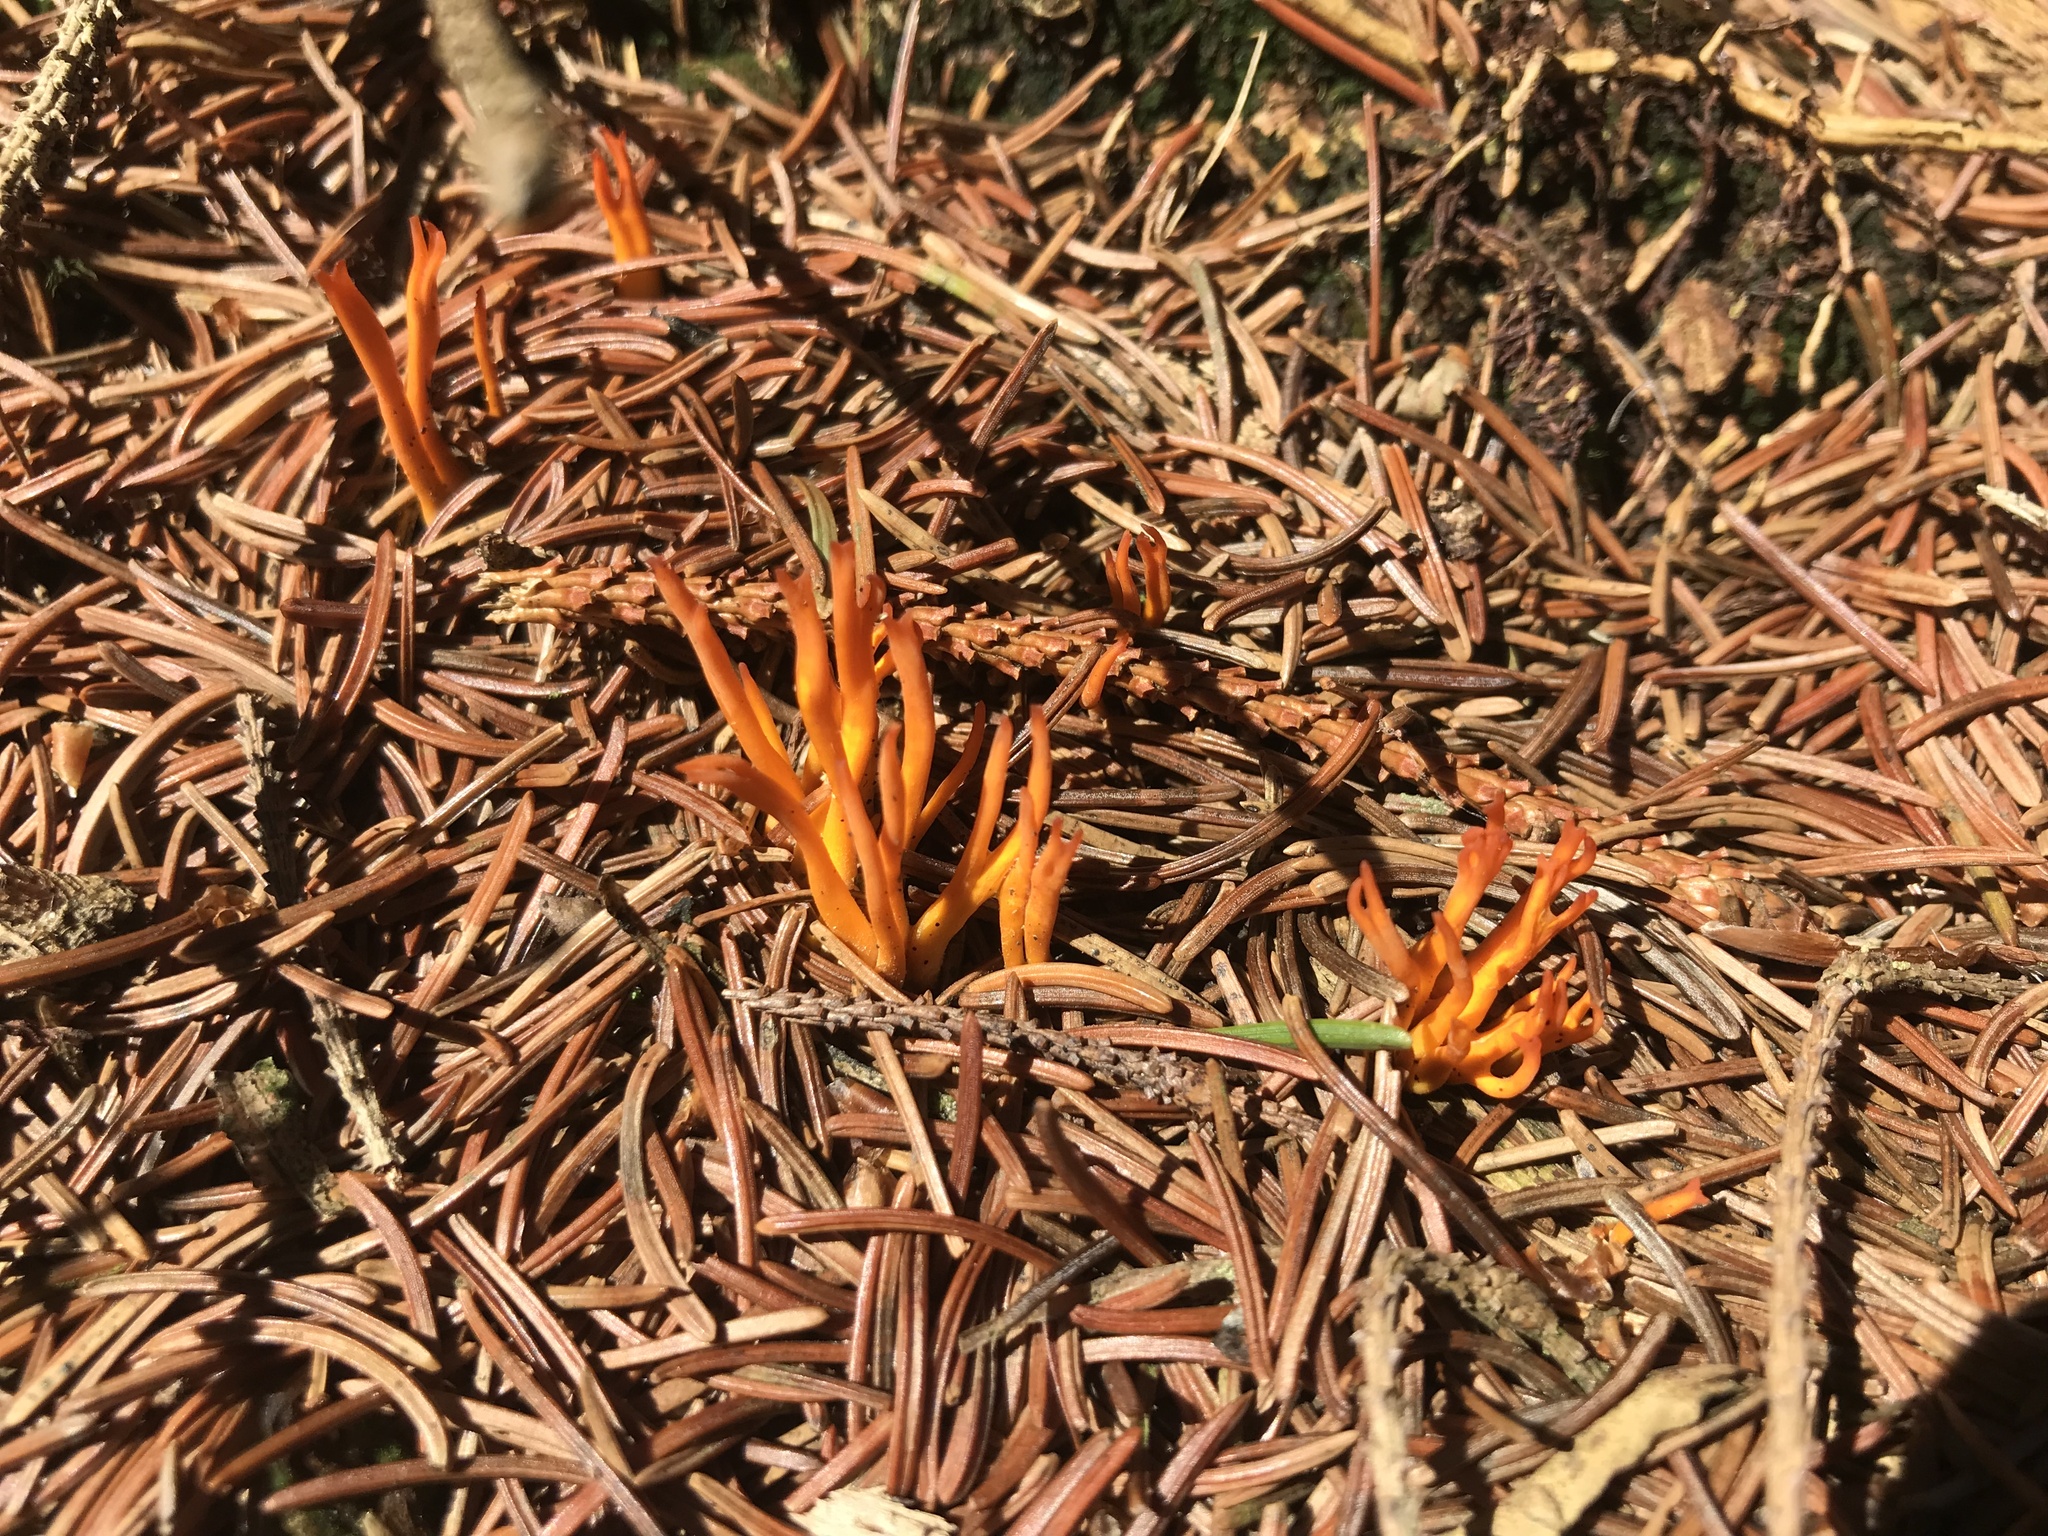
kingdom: Fungi
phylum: Basidiomycota
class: Dacrymycetes
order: Dacrymycetales
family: Dacrymycetaceae
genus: Calocera
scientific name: Calocera viscosa
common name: Yellow stagshorn
